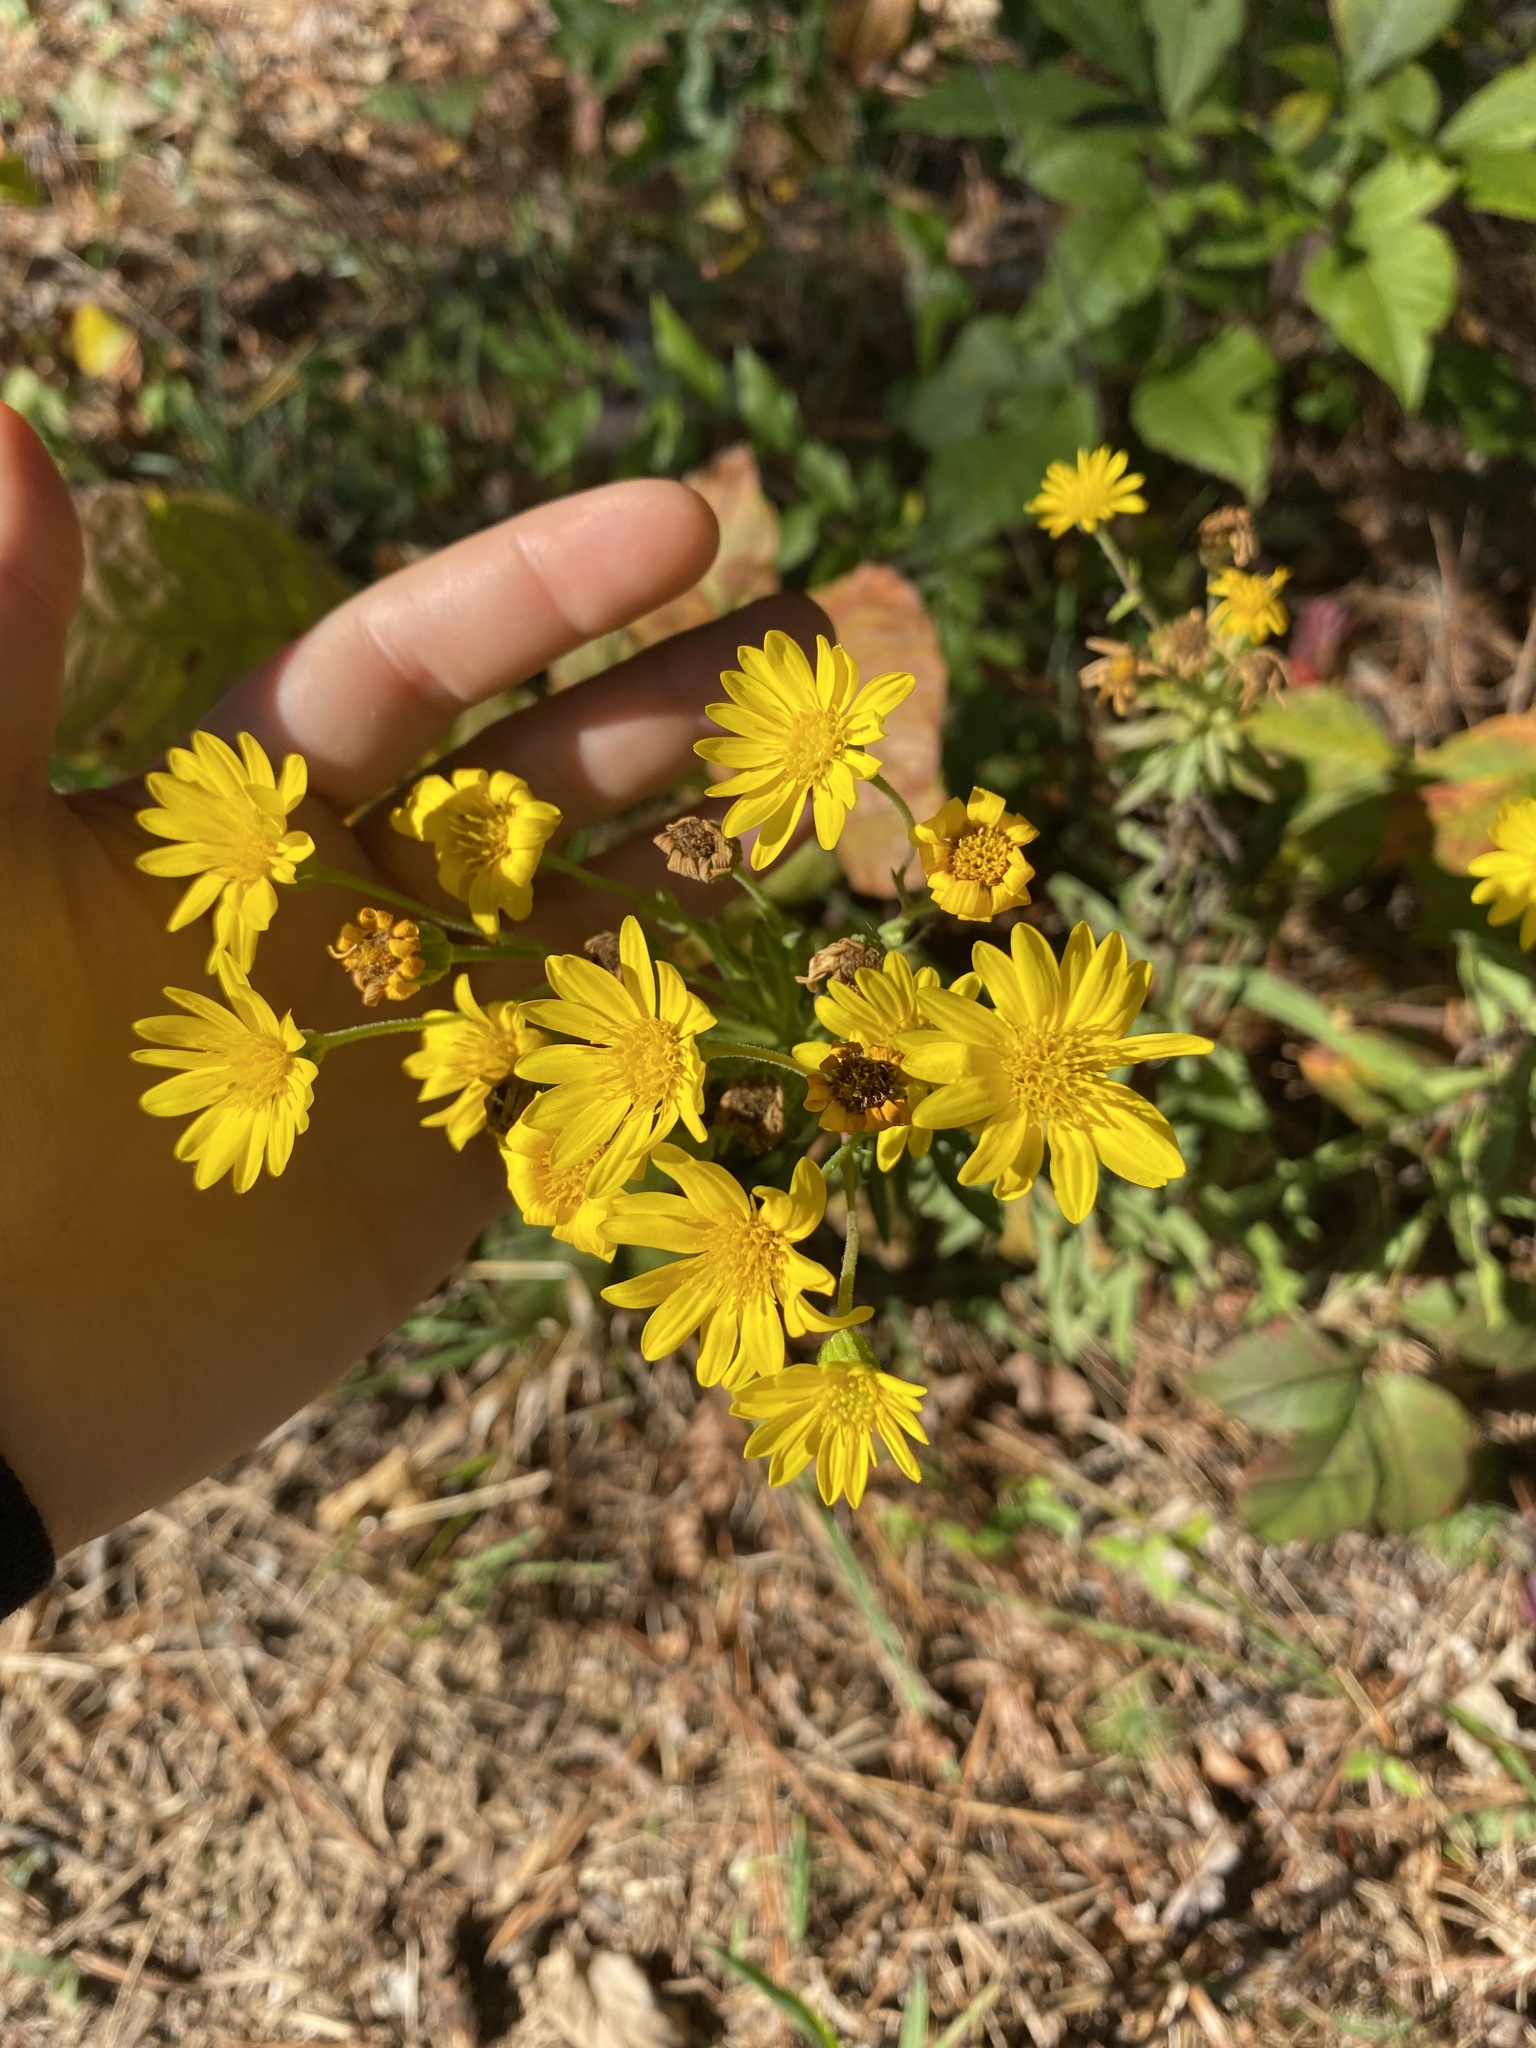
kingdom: Plantae
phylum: Tracheophyta
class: Magnoliopsida
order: Asterales
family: Asteraceae
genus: Chrysopsis
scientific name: Chrysopsis mariana
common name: Maryland golden-aster
